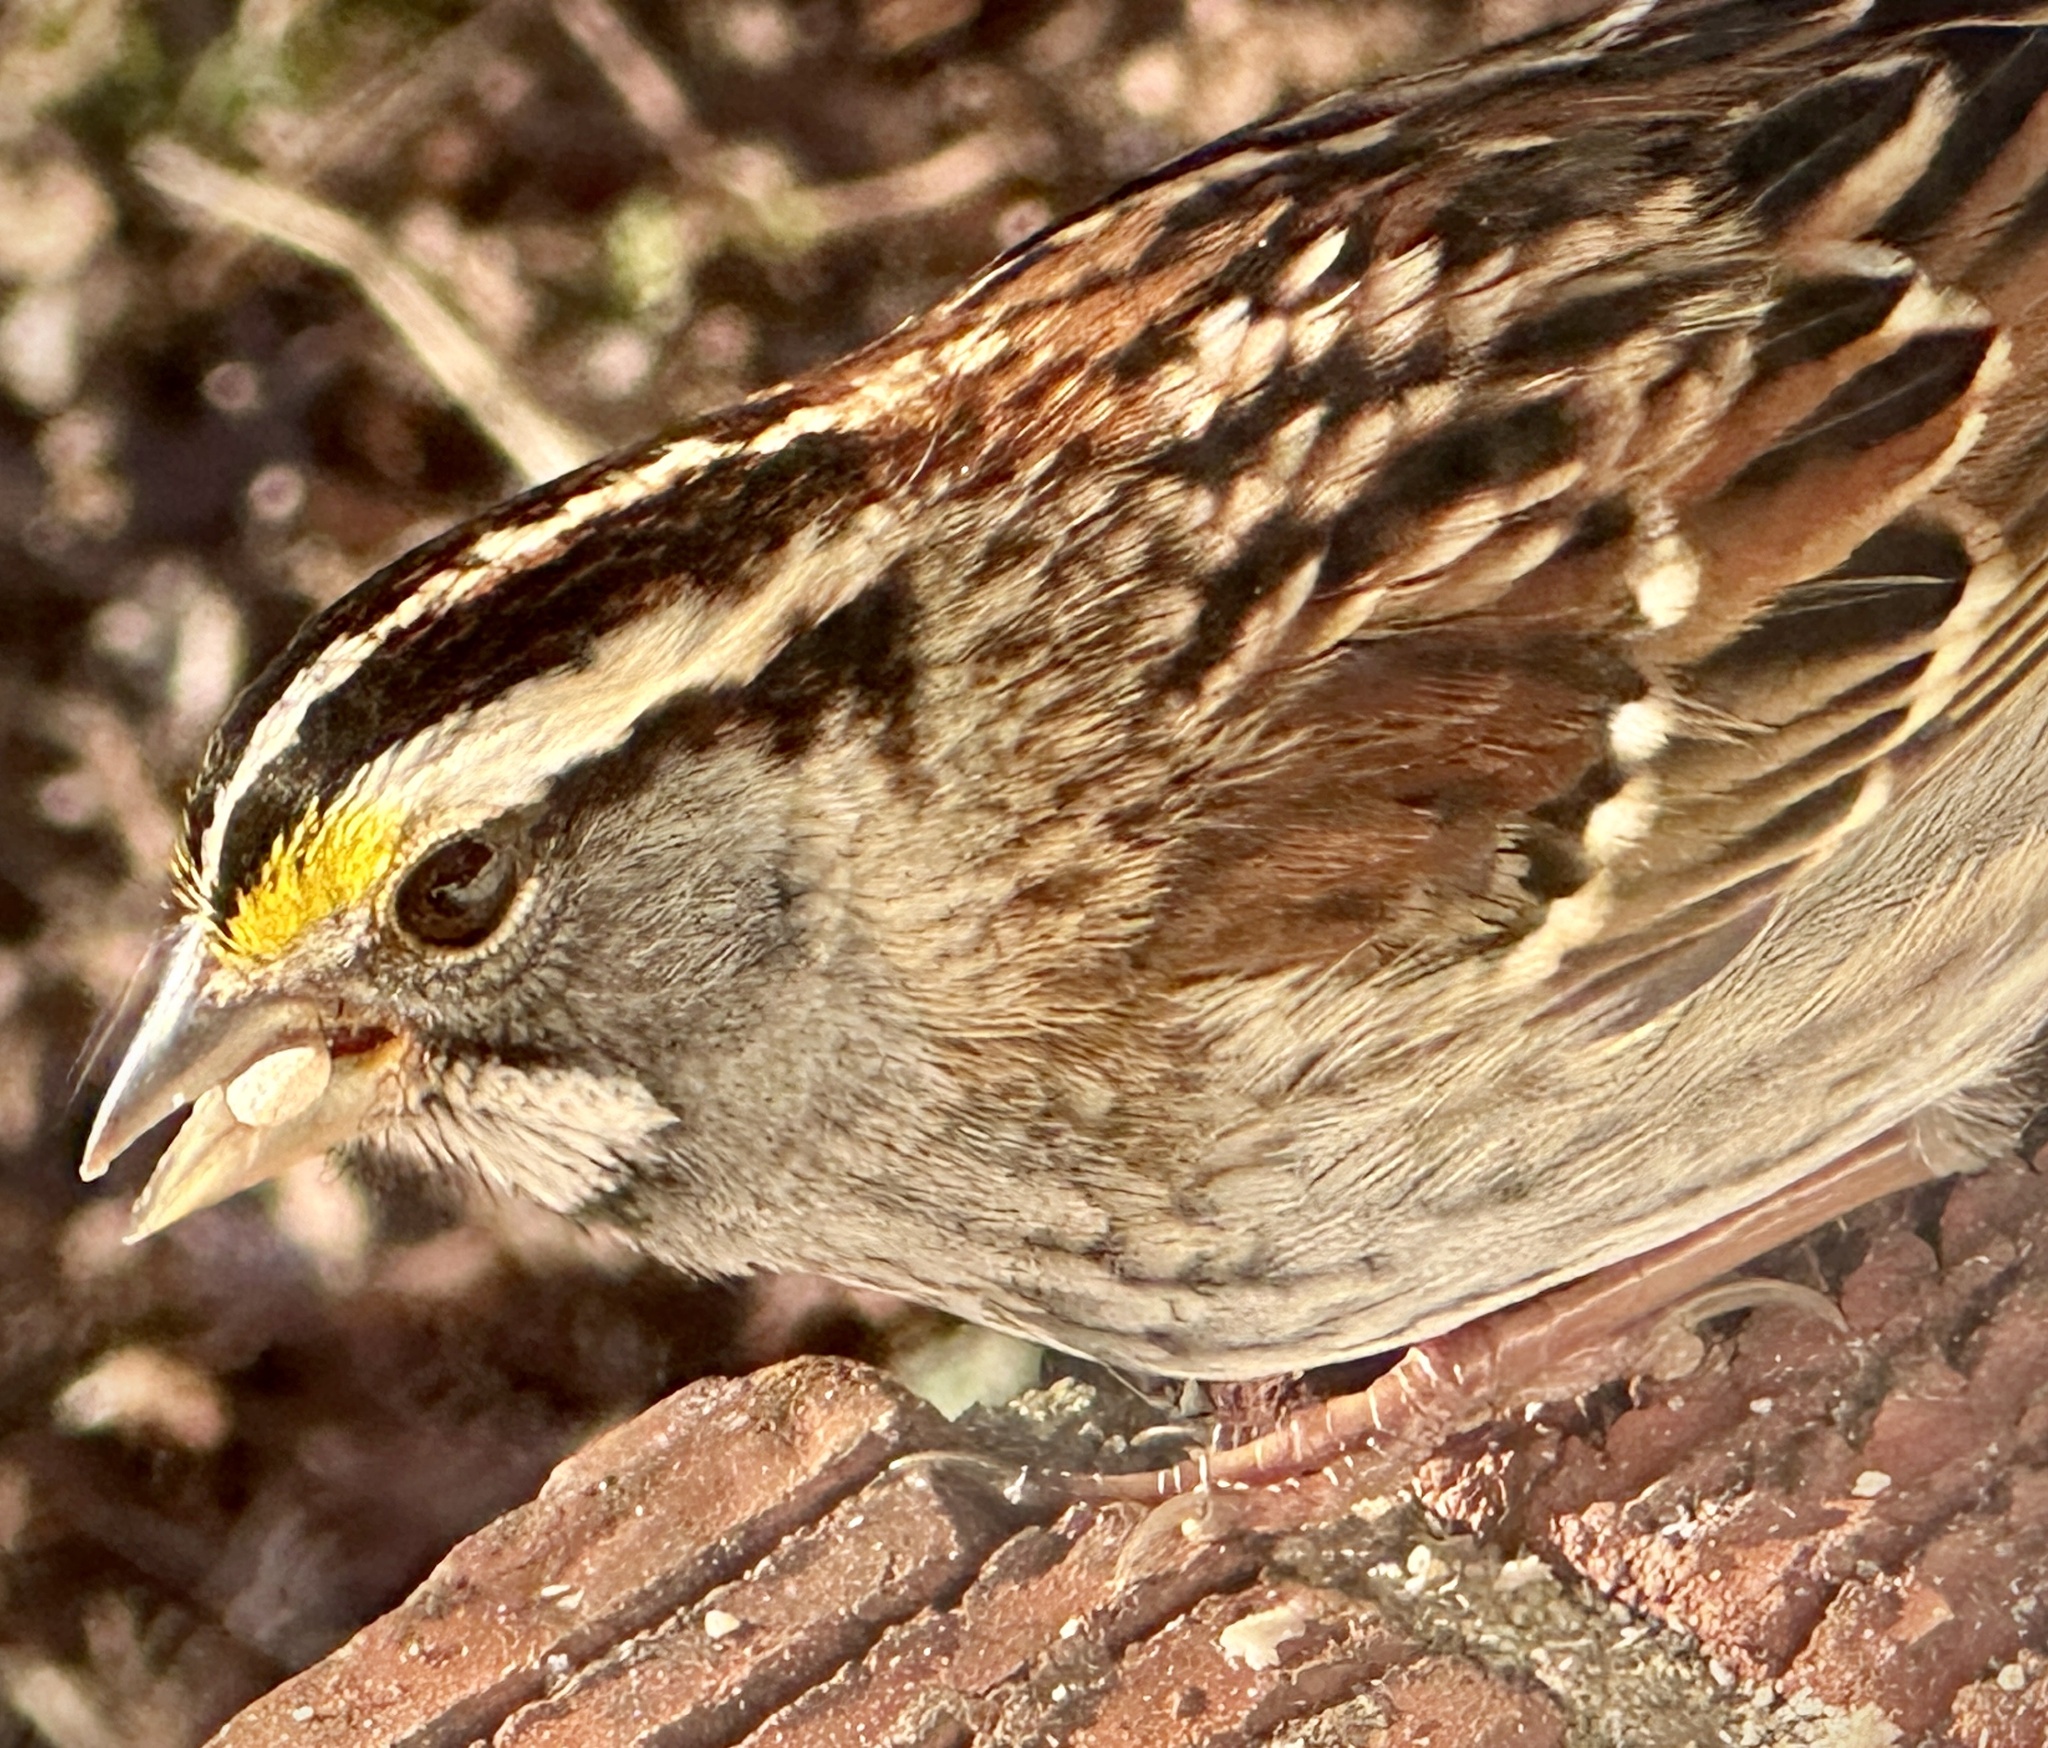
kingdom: Animalia
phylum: Chordata
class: Aves
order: Passeriformes
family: Passerellidae
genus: Zonotrichia
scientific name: Zonotrichia albicollis
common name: White-throated sparrow
